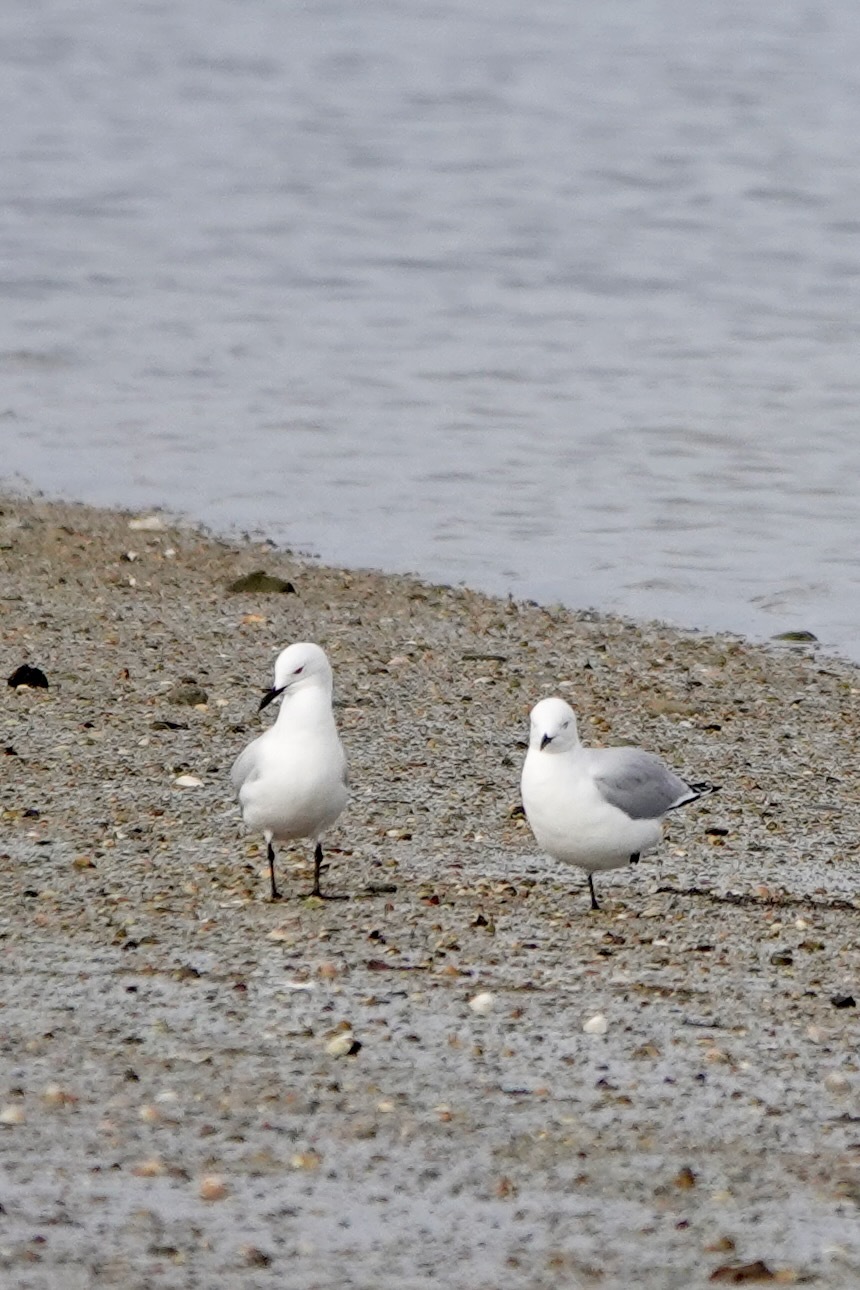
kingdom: Animalia
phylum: Chordata
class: Aves
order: Charadriiformes
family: Laridae
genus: Chroicocephalus
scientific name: Chroicocephalus bulleri
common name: Black-billed gull
